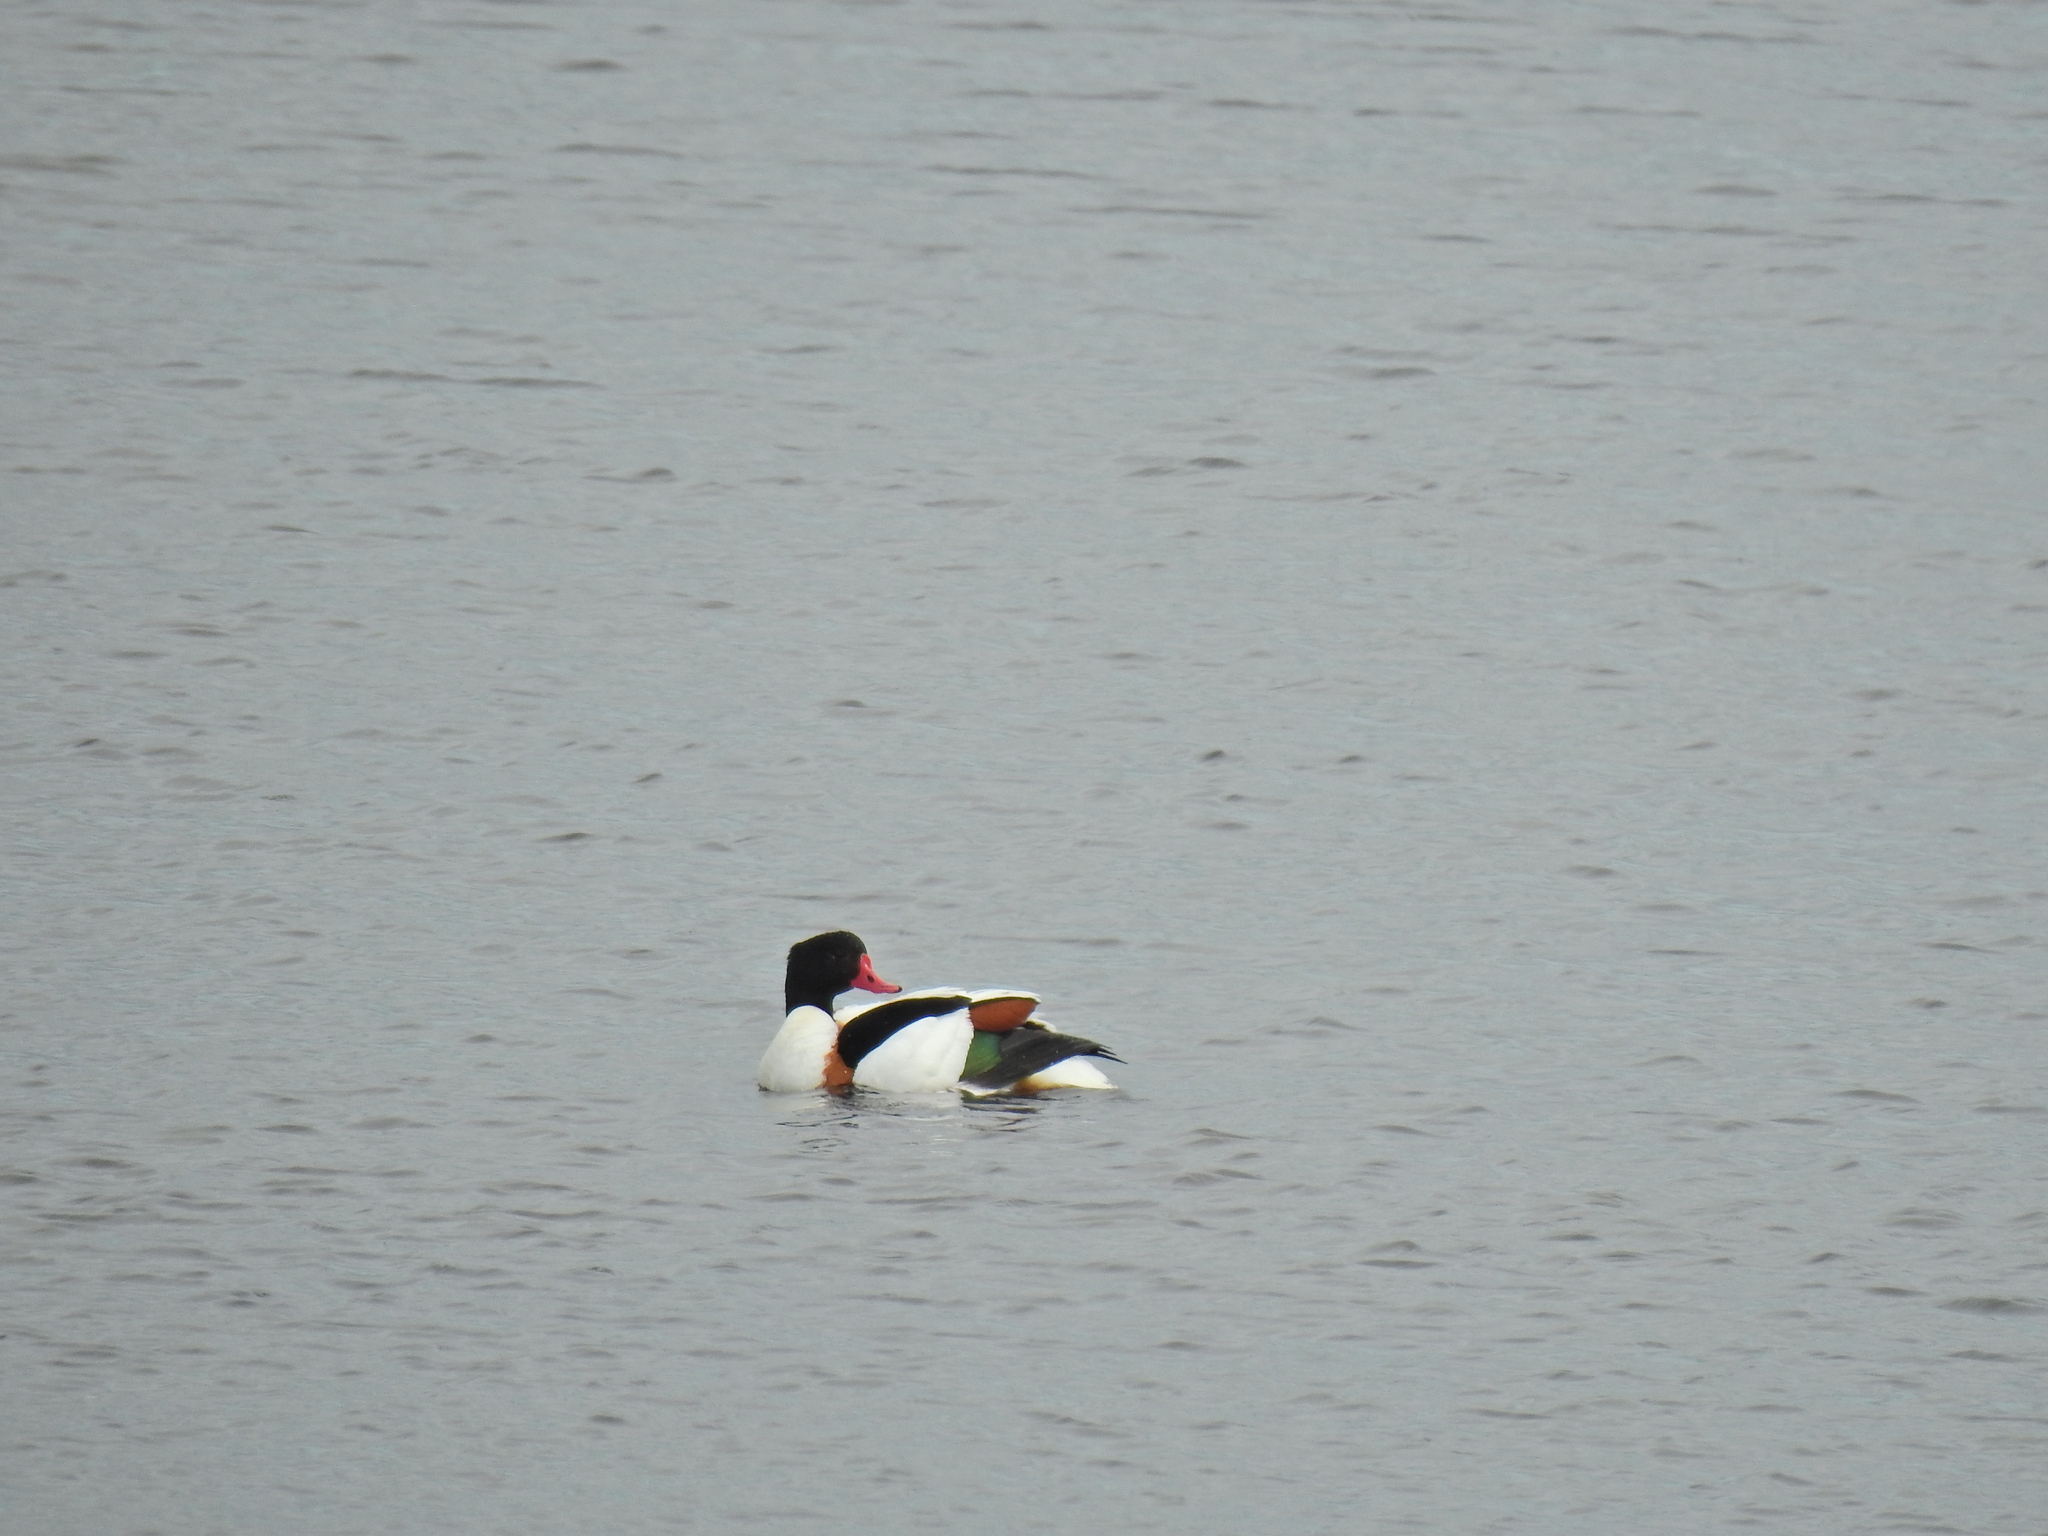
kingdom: Animalia
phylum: Chordata
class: Aves
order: Anseriformes
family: Anatidae
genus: Tadorna
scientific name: Tadorna tadorna
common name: Common shelduck
